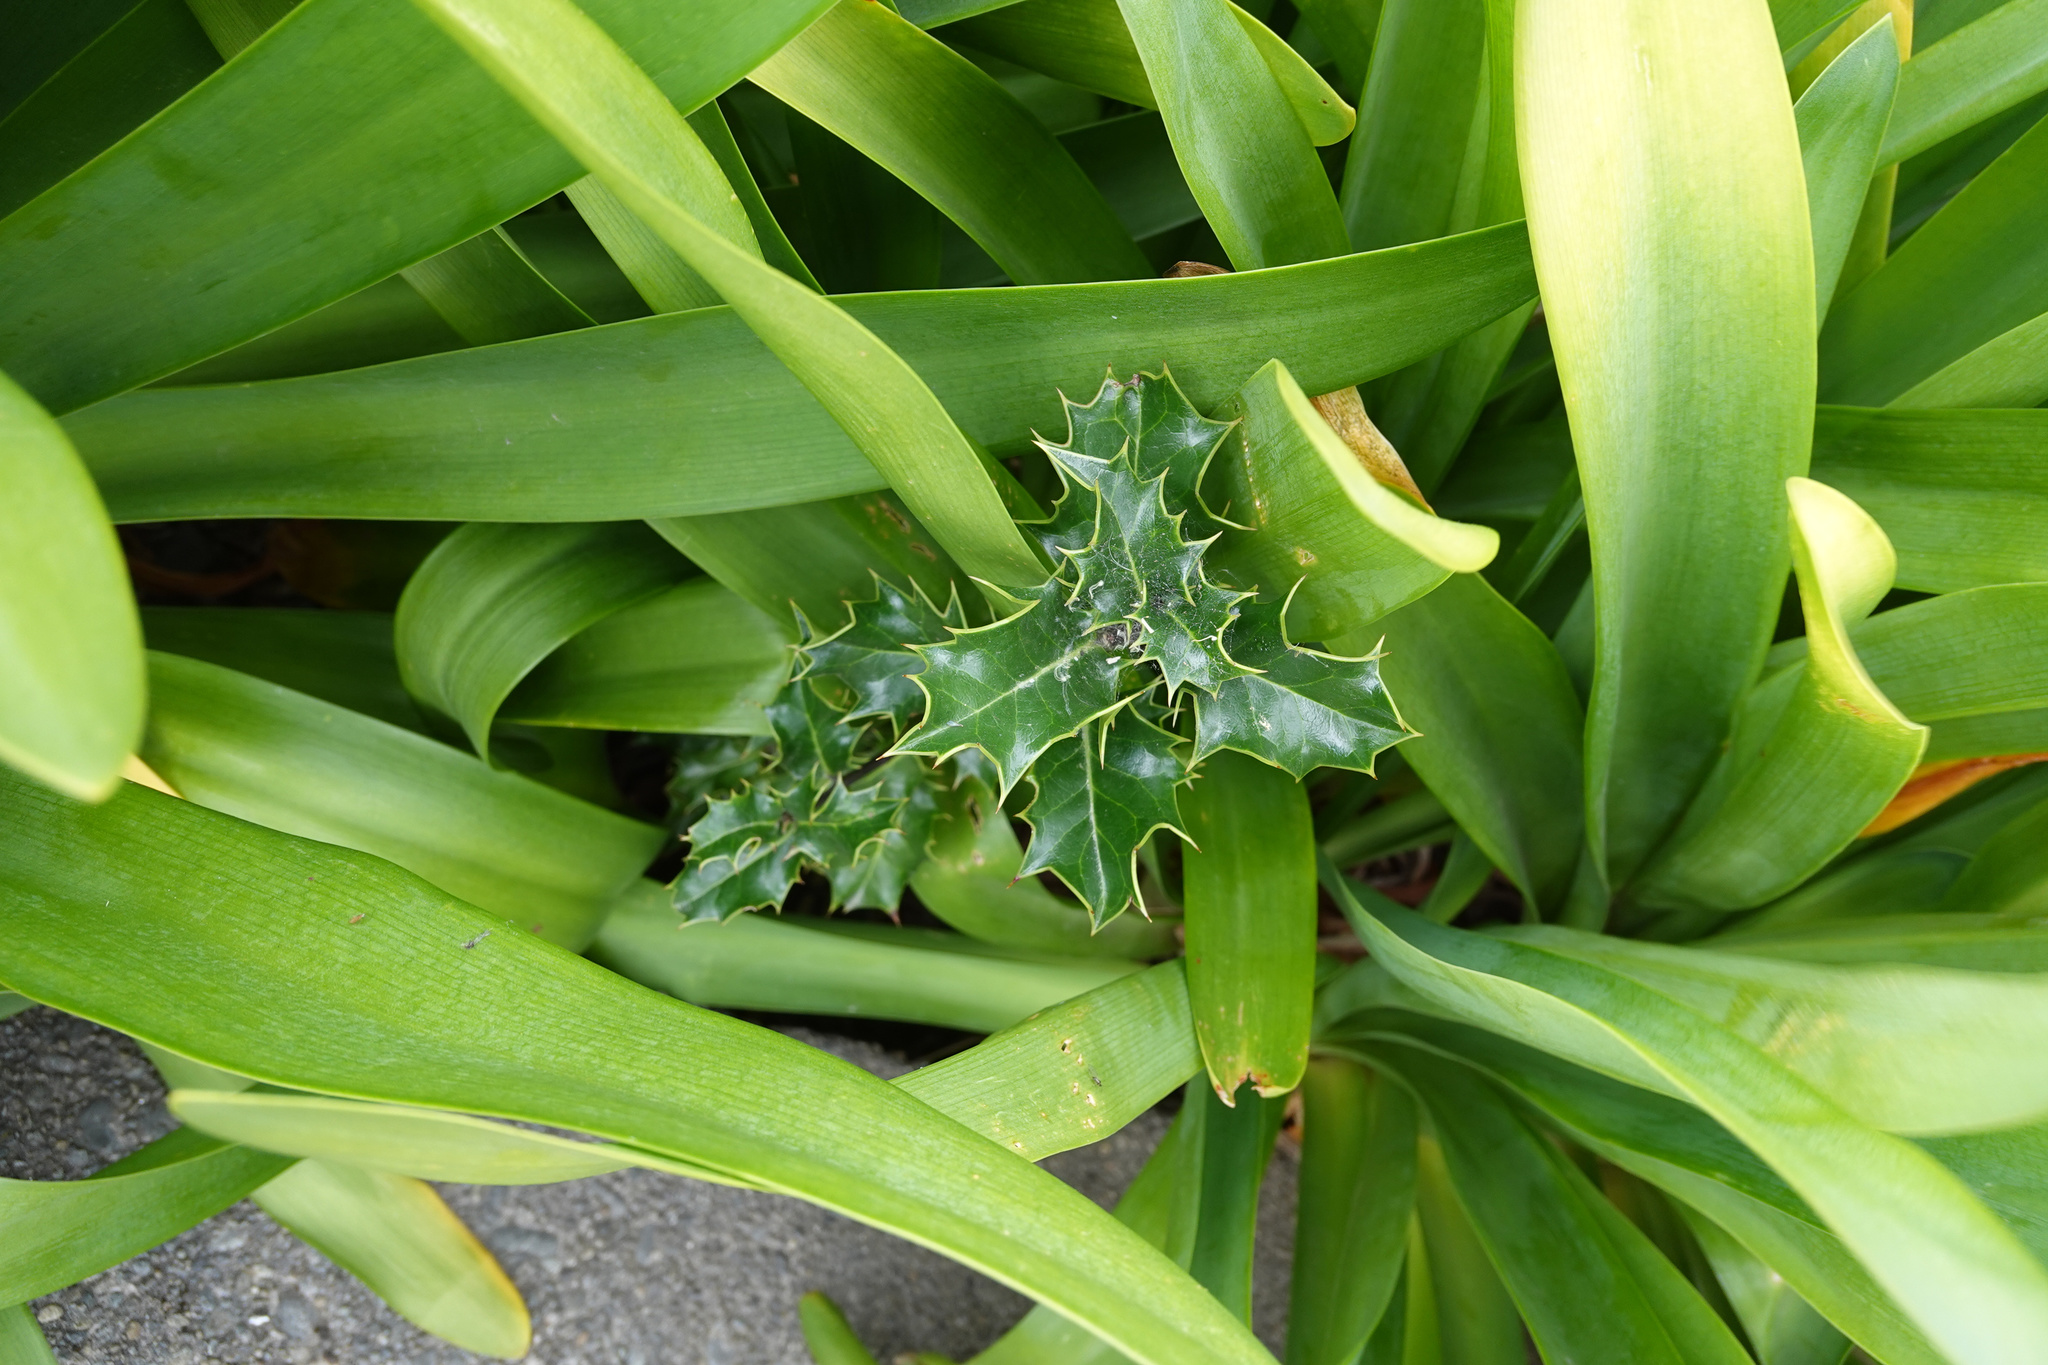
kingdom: Plantae
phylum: Tracheophyta
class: Magnoliopsida
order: Aquifoliales
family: Aquifoliaceae
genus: Ilex
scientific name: Ilex aquifolium
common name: English holly
